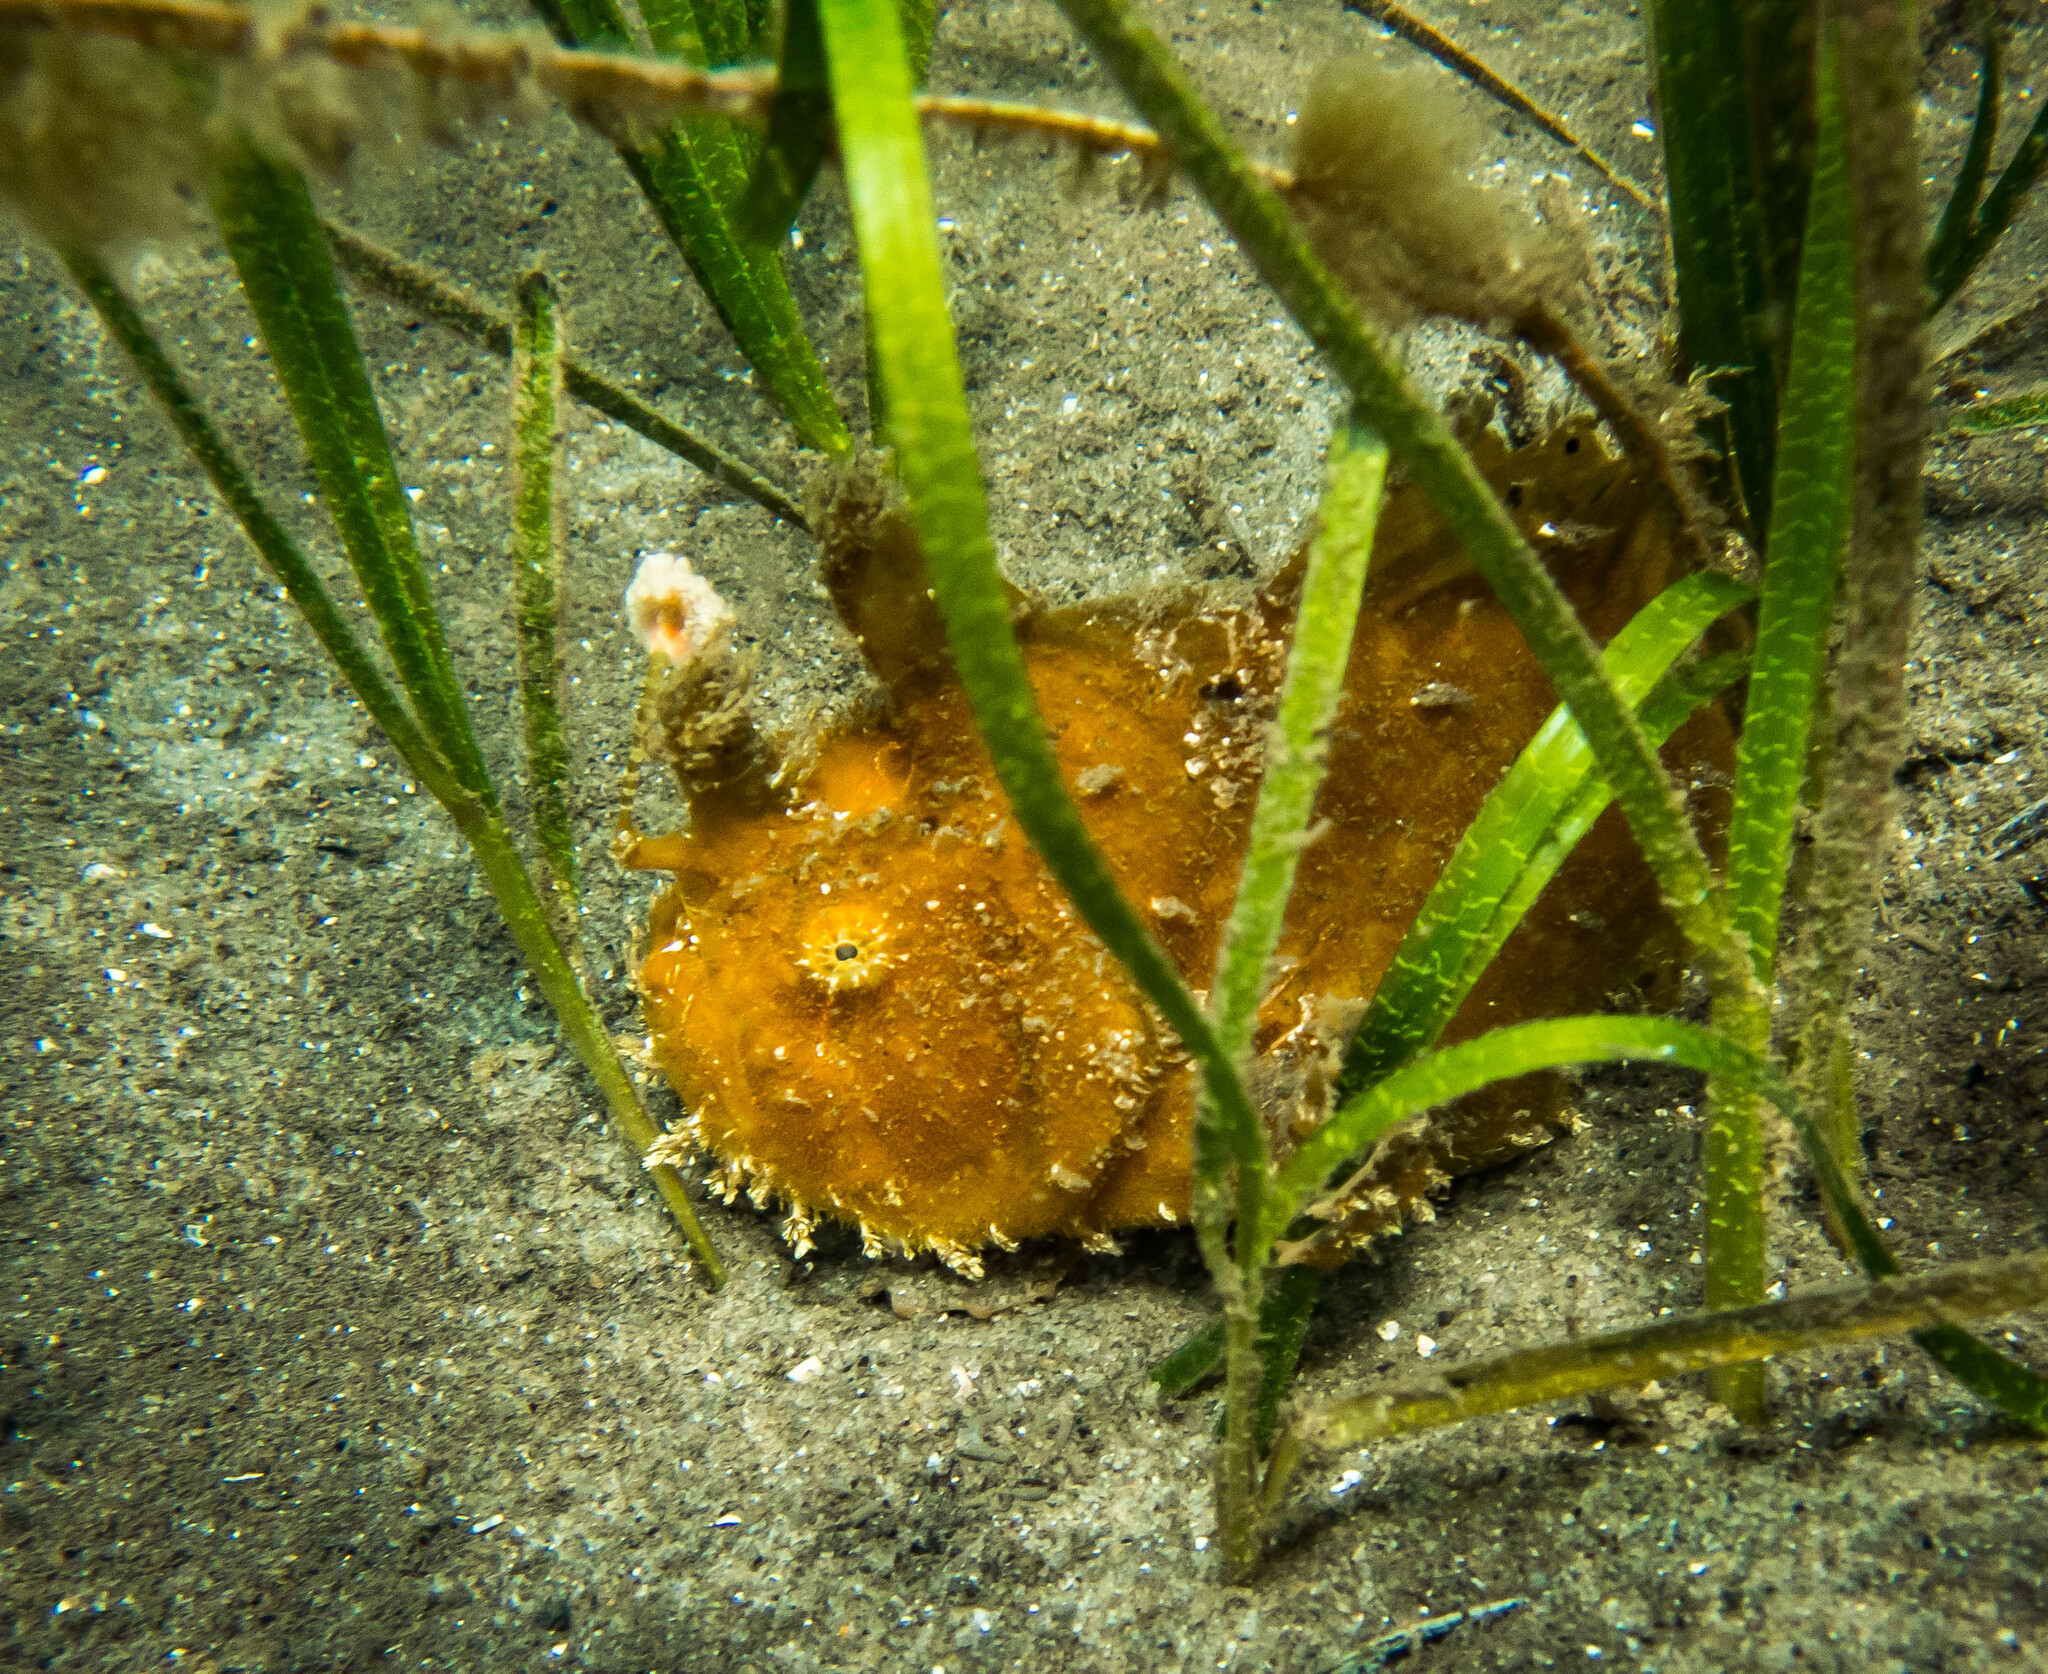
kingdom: Animalia
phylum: Chordata
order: Lophiiformes
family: Antennariidae
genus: Antennarius
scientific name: Antennarius striatus
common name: Striated frogfish
